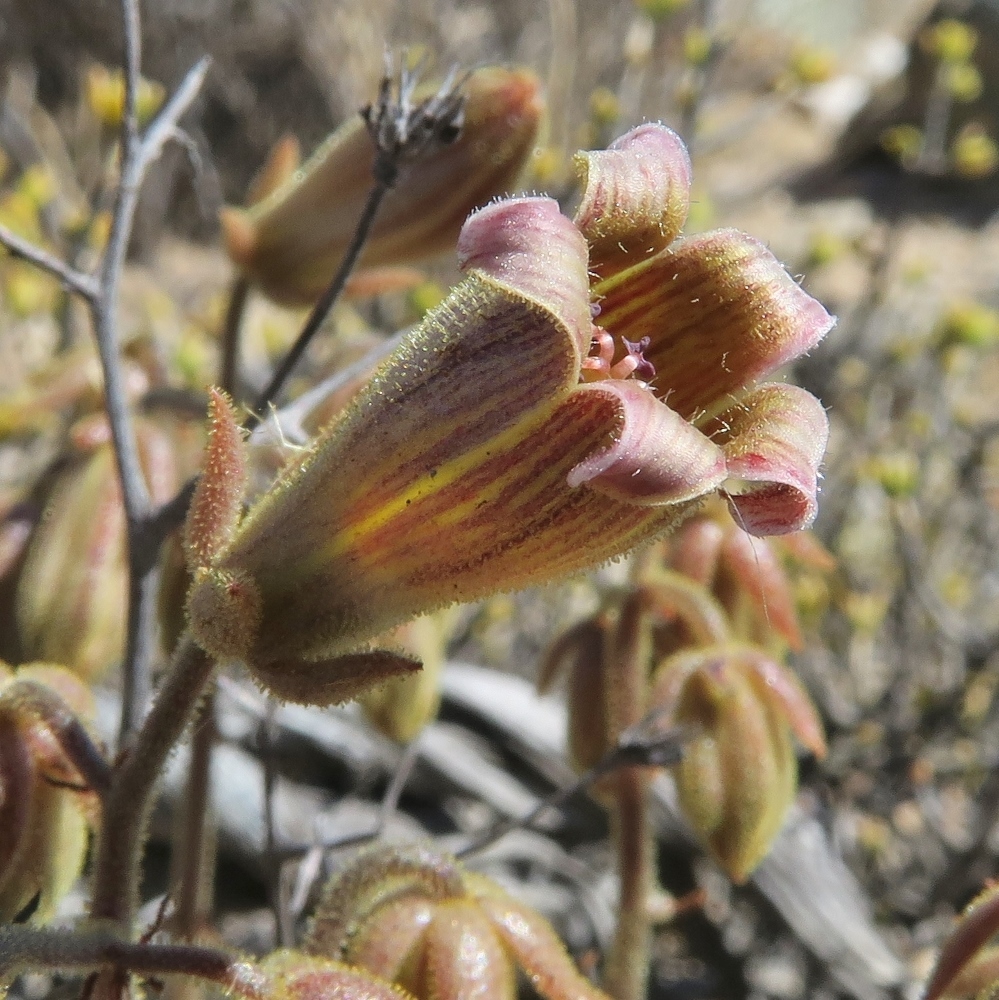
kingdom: Plantae
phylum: Tracheophyta
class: Magnoliopsida
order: Saxifragales
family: Crassulaceae
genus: Tylecodon
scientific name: Tylecodon pearsonii
